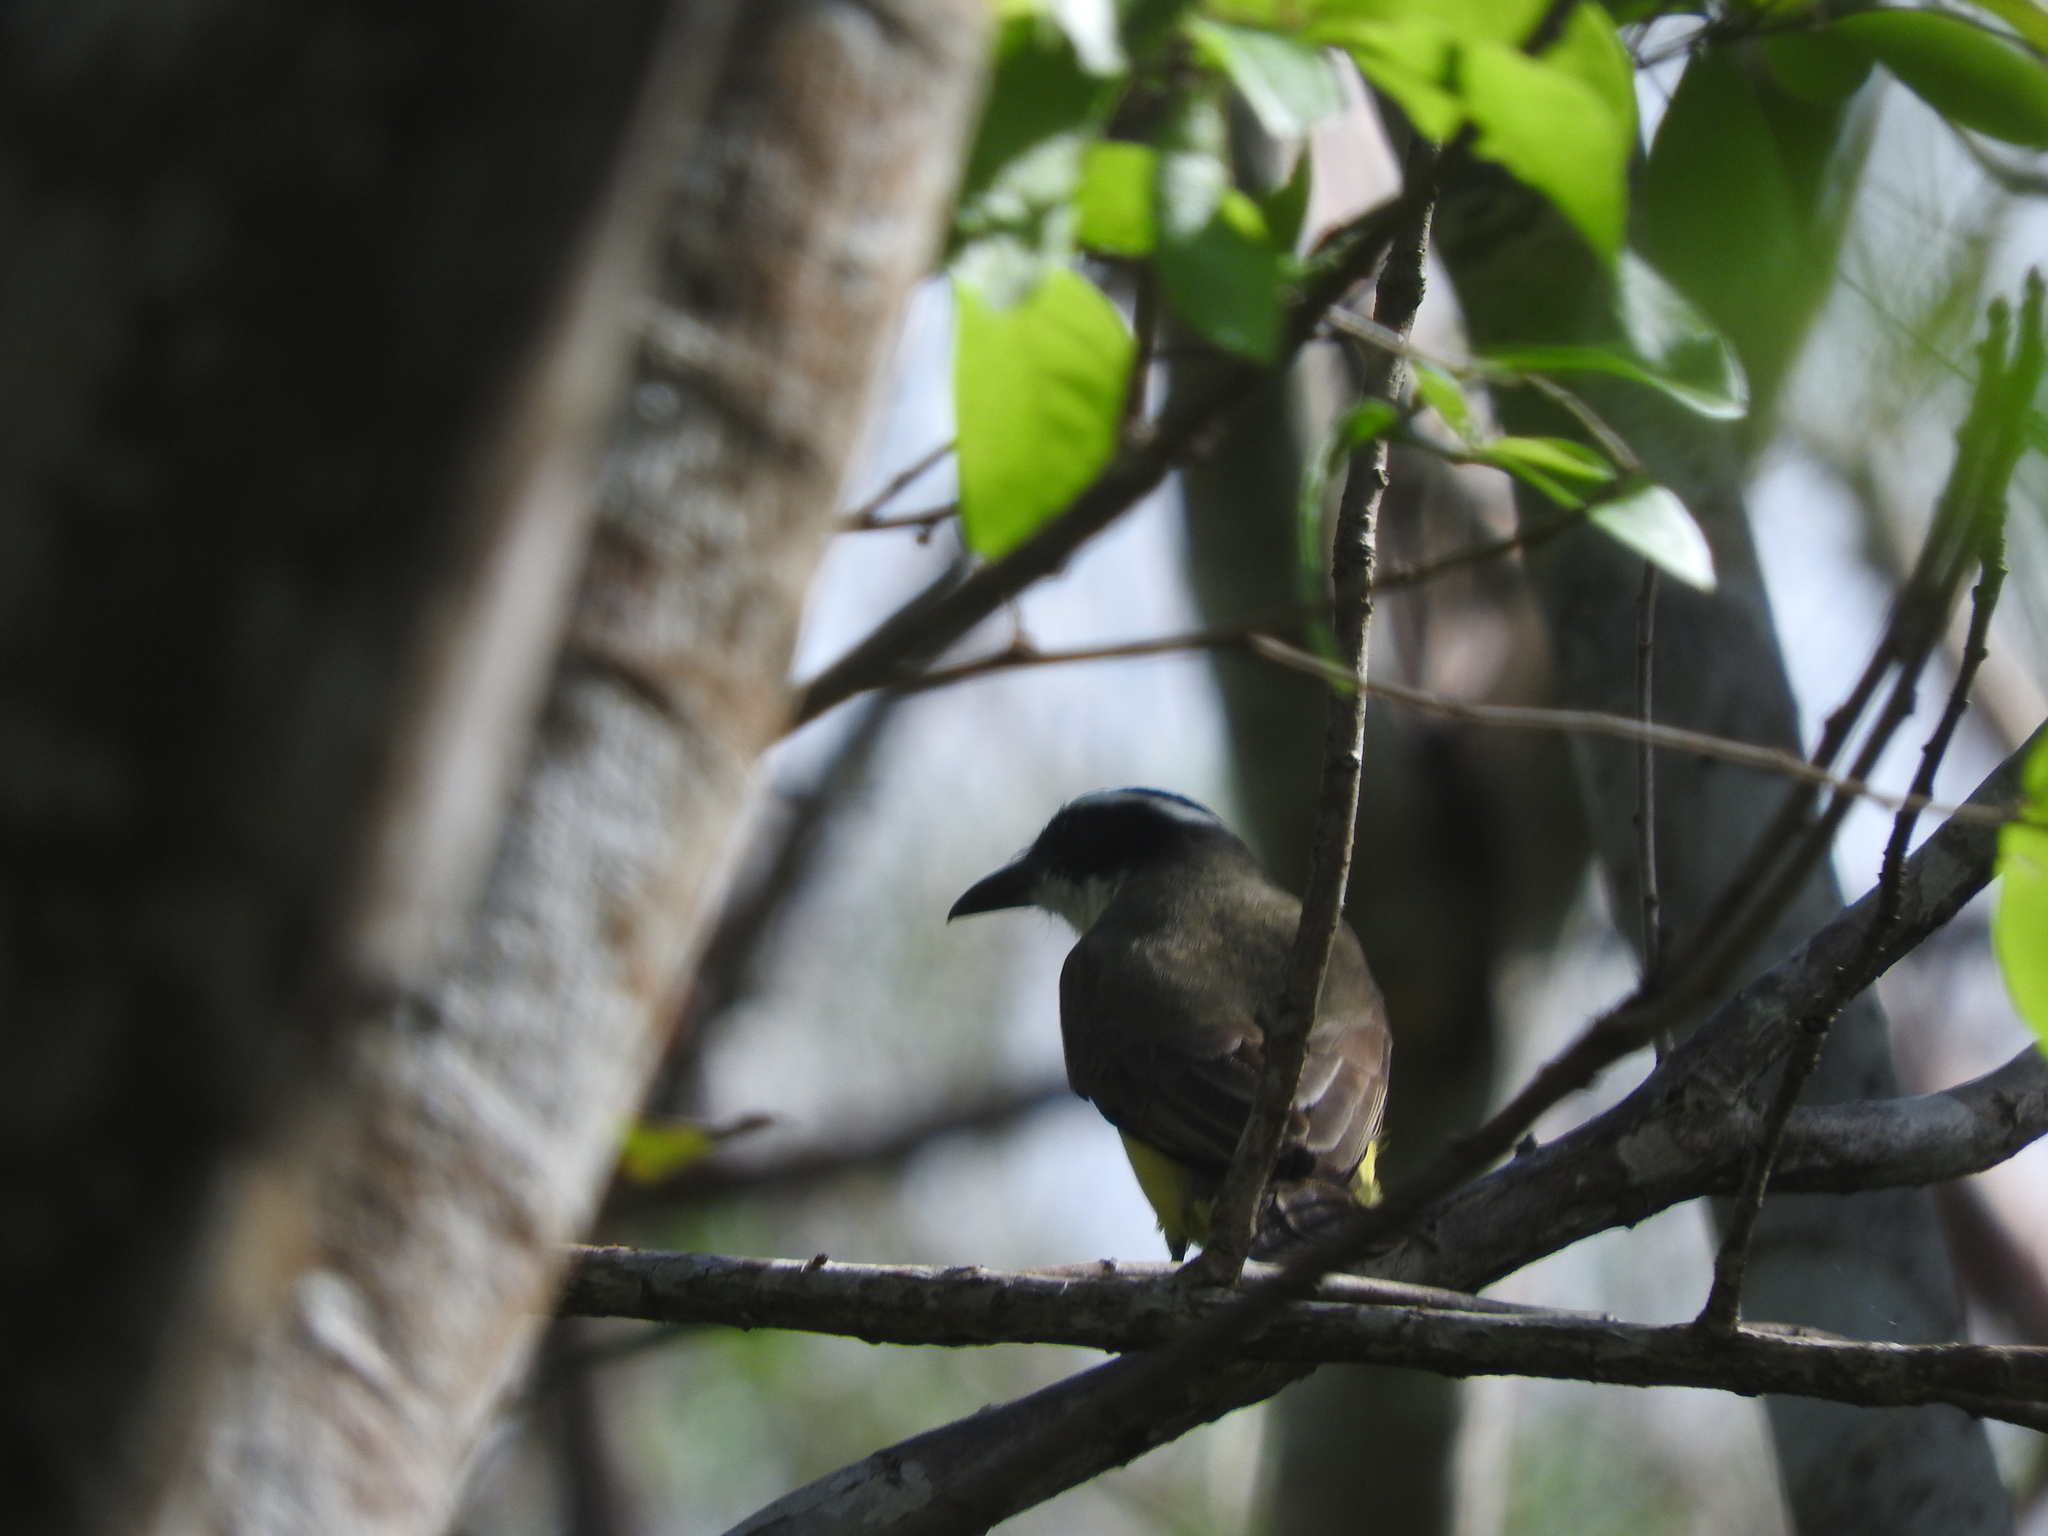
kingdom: Animalia
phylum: Chordata
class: Aves
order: Passeriformes
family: Tyrannidae
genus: Megarynchus
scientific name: Megarynchus pitangua
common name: Boat-billed flycatcher
